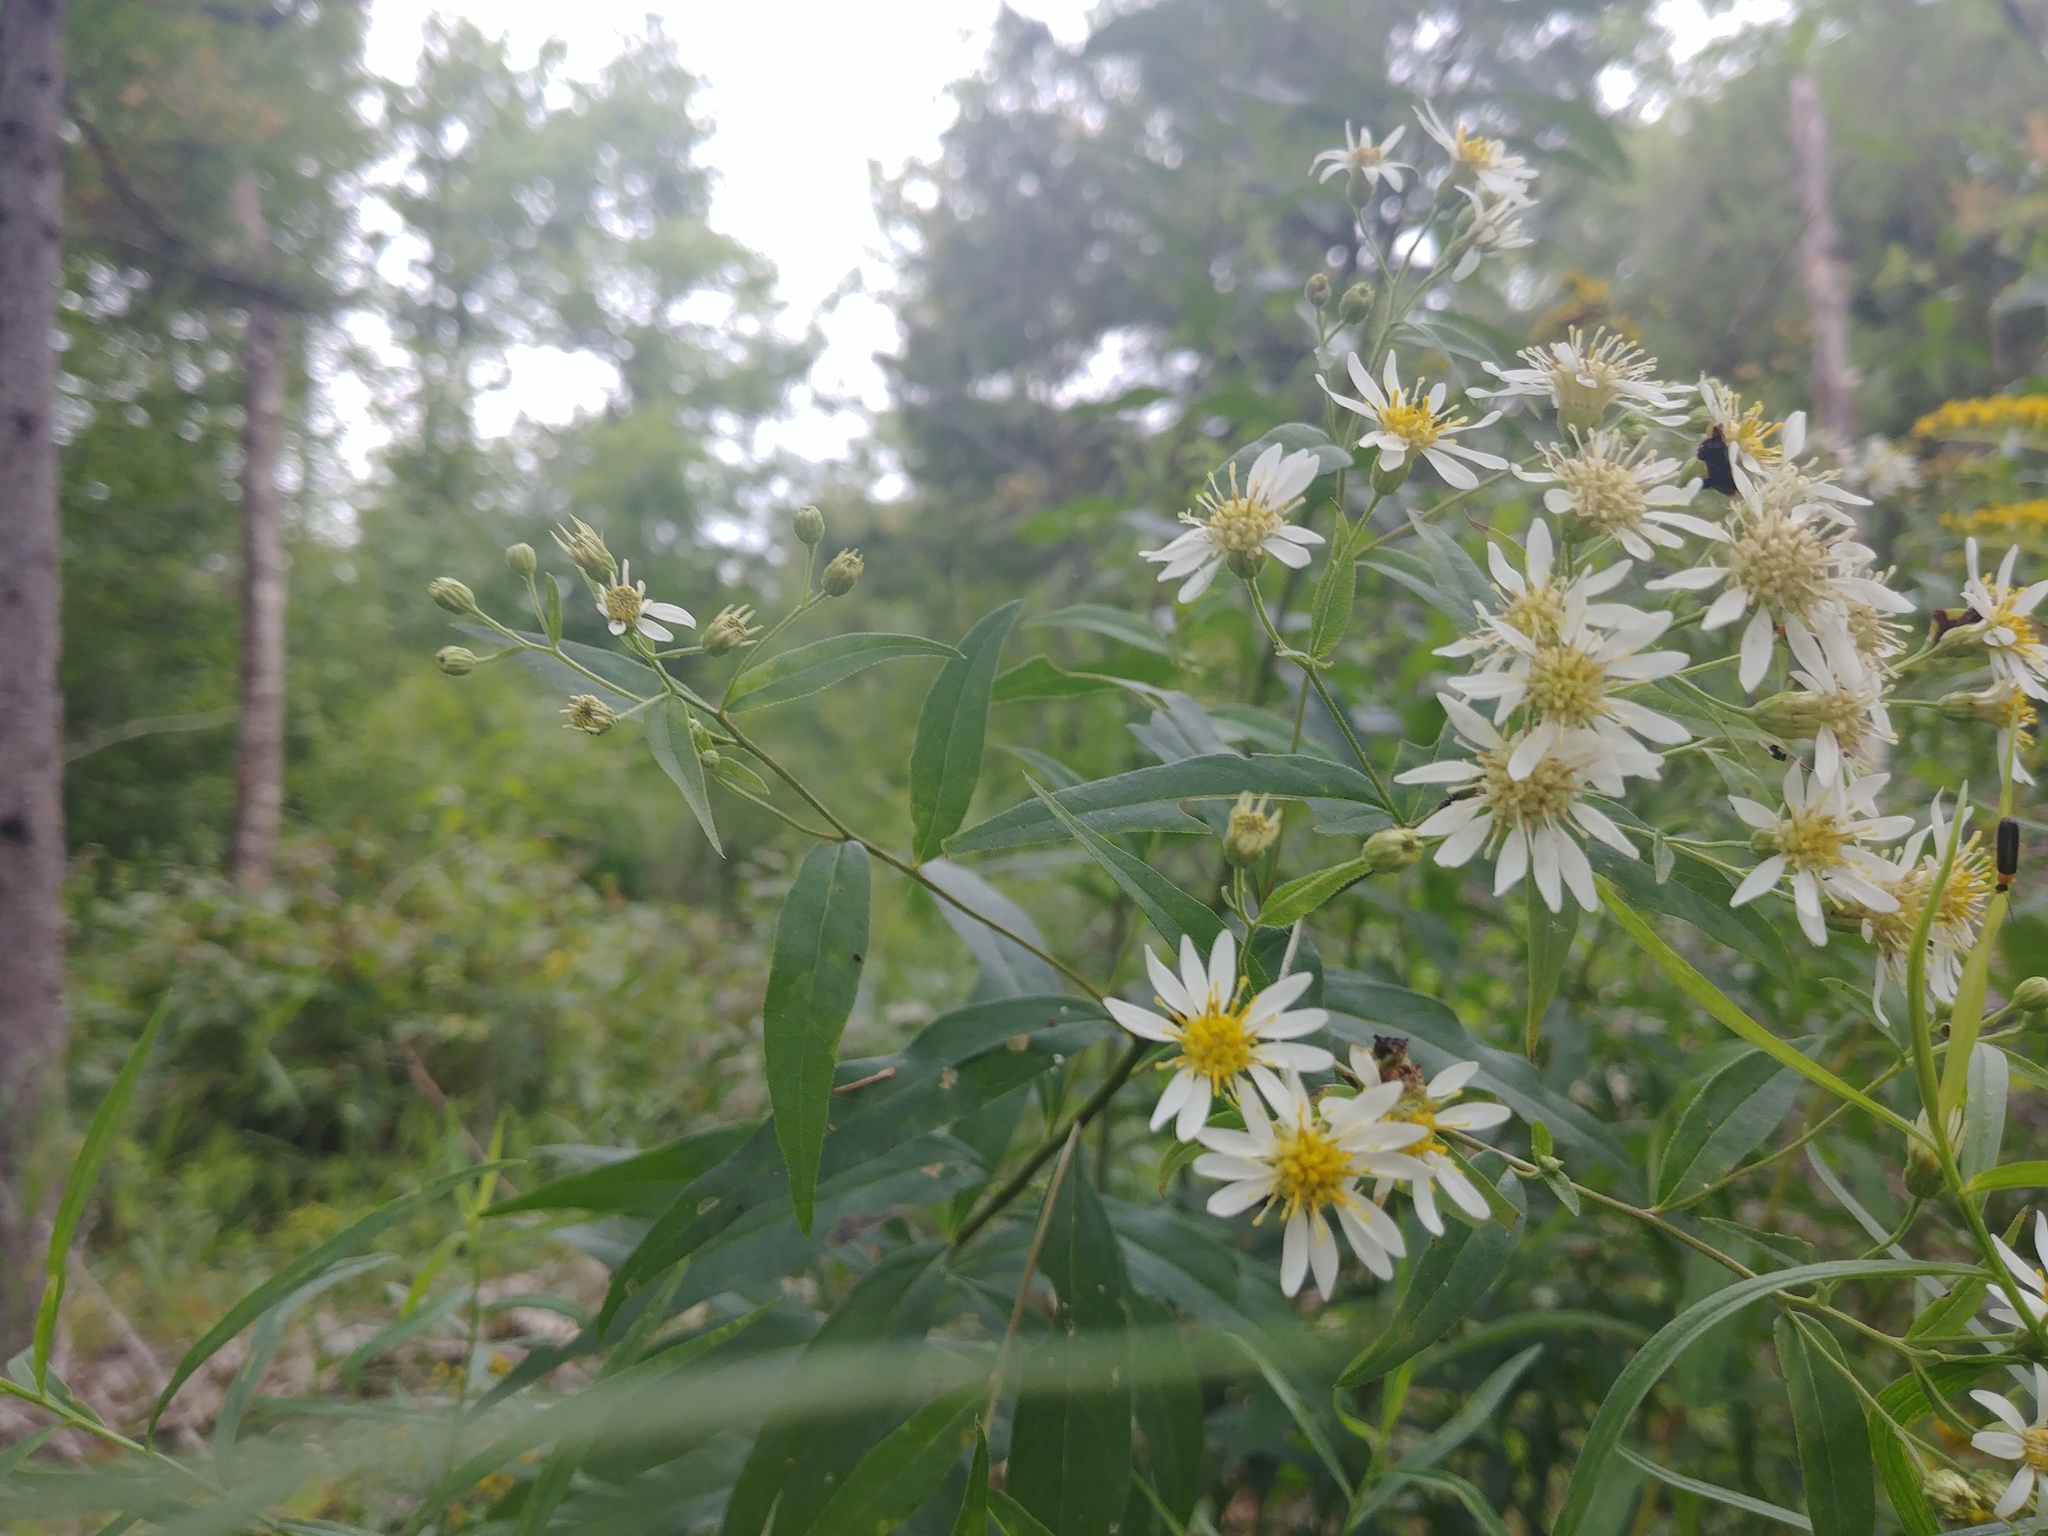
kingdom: Plantae
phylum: Tracheophyta
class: Magnoliopsida
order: Asterales
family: Asteraceae
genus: Doellingeria
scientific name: Doellingeria umbellata
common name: Flat-top white aster
